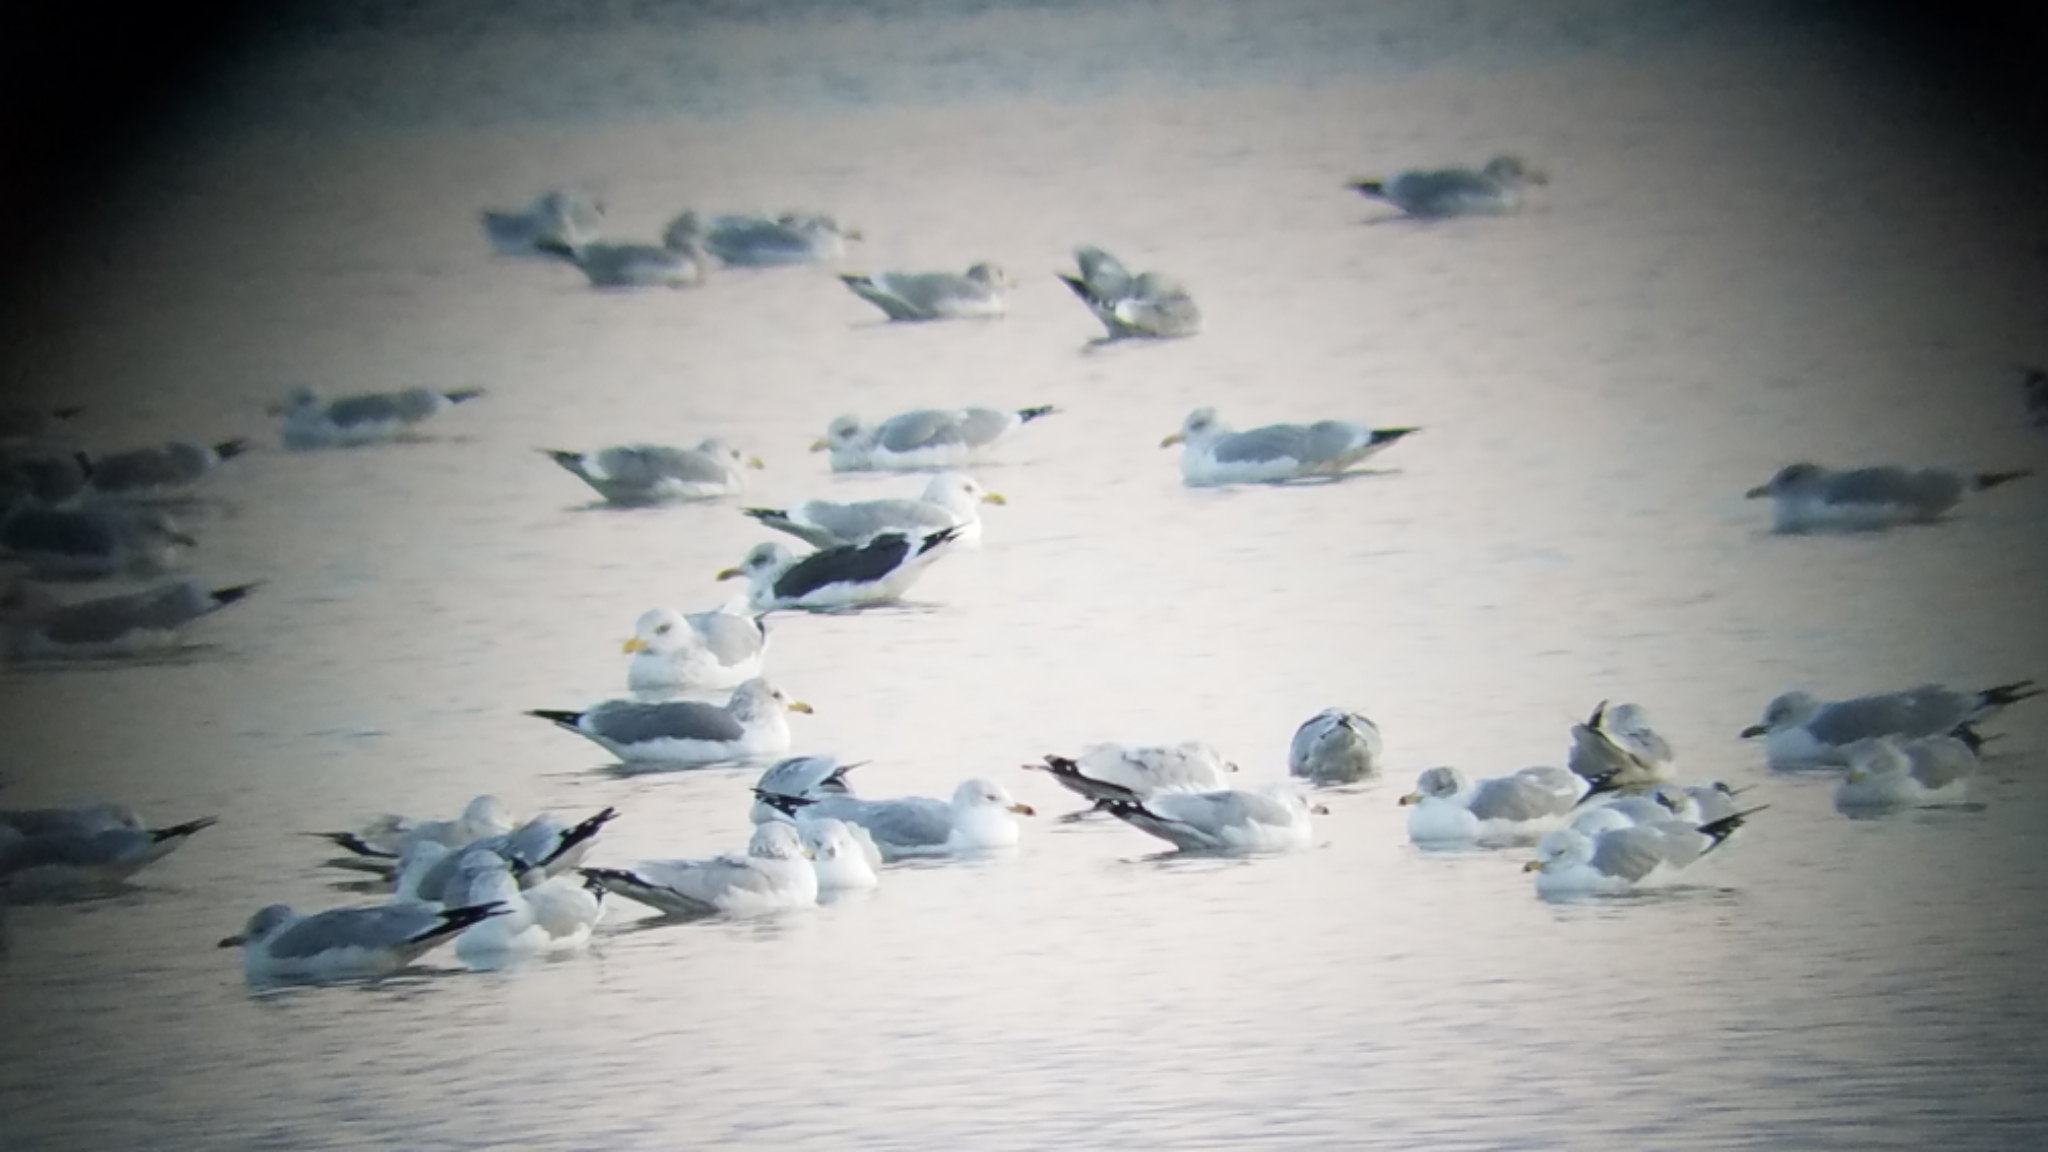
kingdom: Animalia
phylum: Chordata
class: Aves
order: Charadriiformes
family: Laridae
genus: Larus
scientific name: Larus fuscus
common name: Lesser black-backed gull
